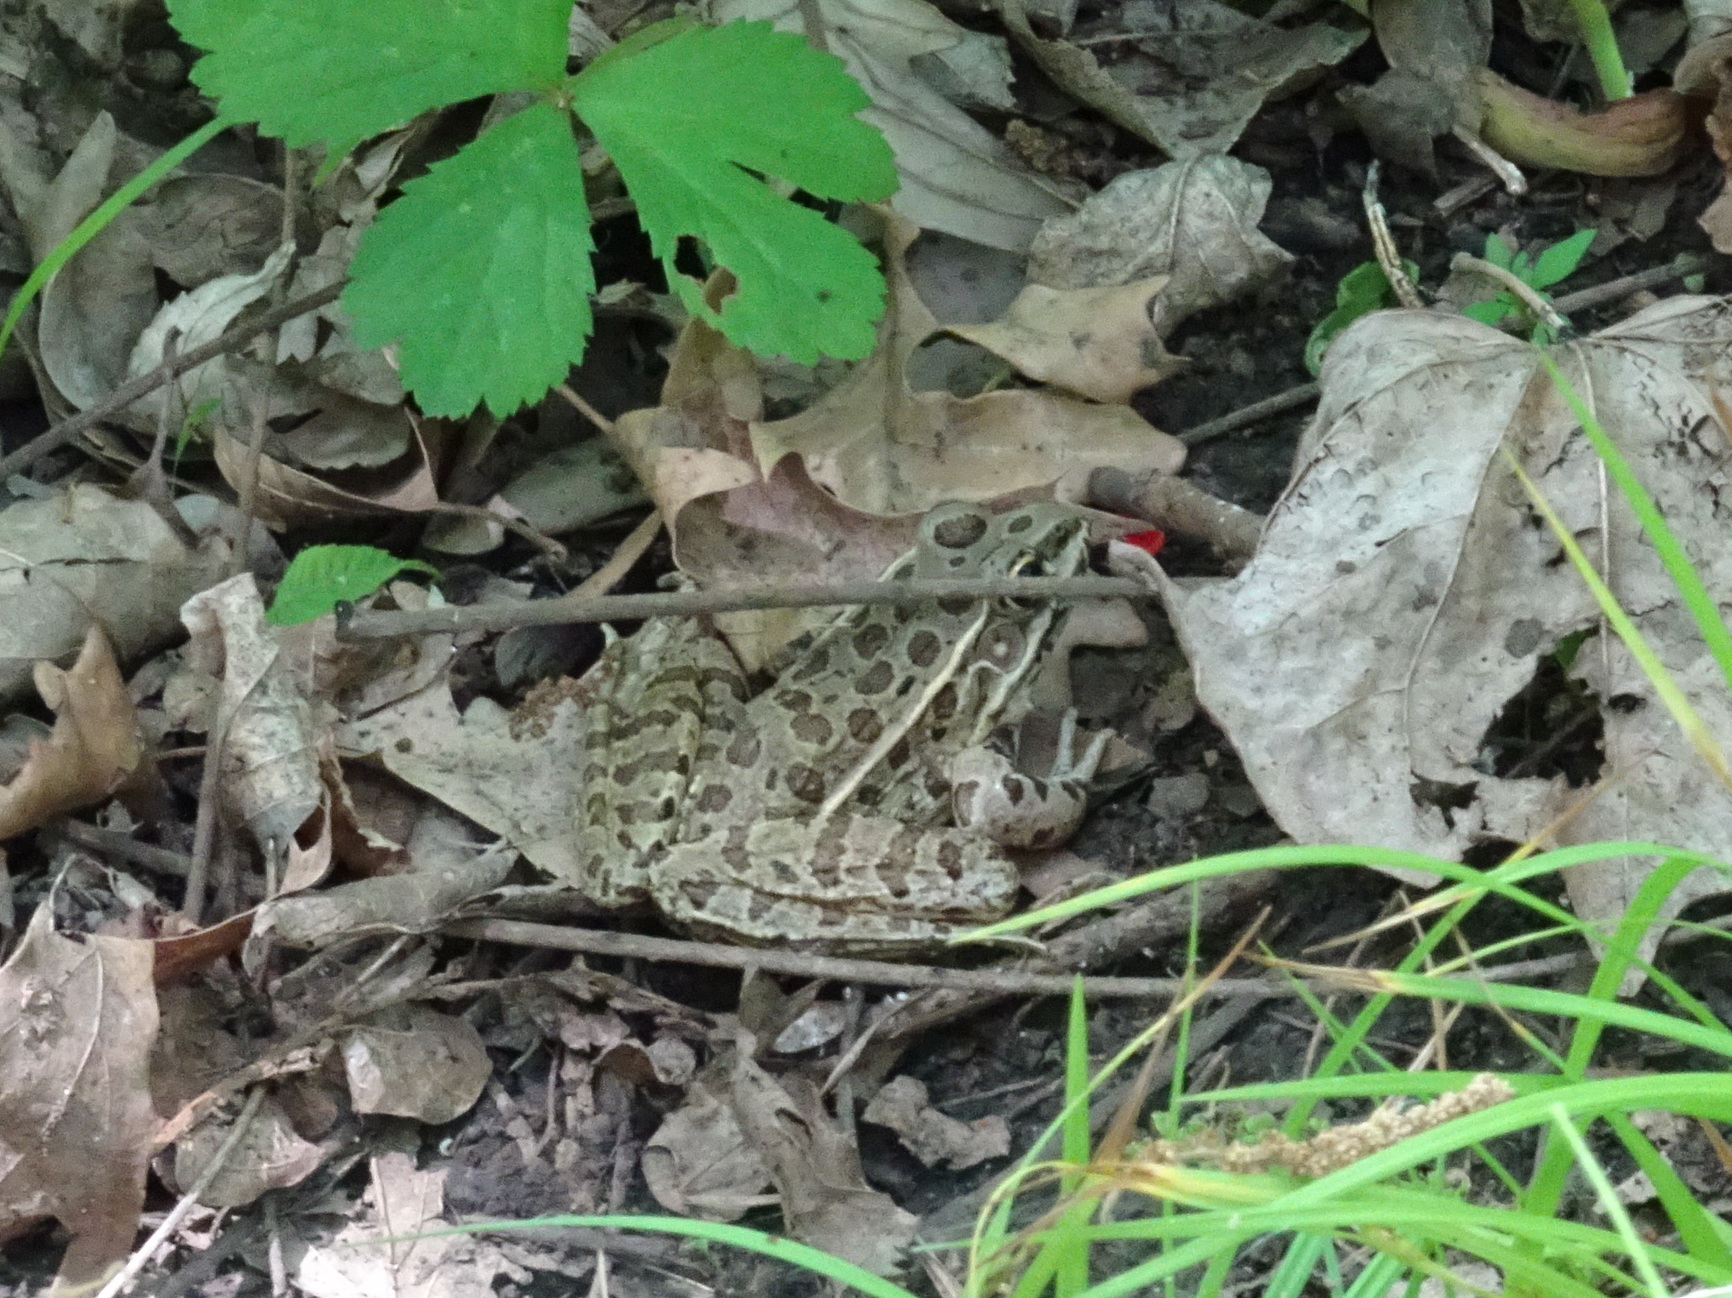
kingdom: Animalia
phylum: Chordata
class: Amphibia
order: Anura
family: Ranidae
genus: Lithobates
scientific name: Lithobates blairi
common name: Plains leopard frog
